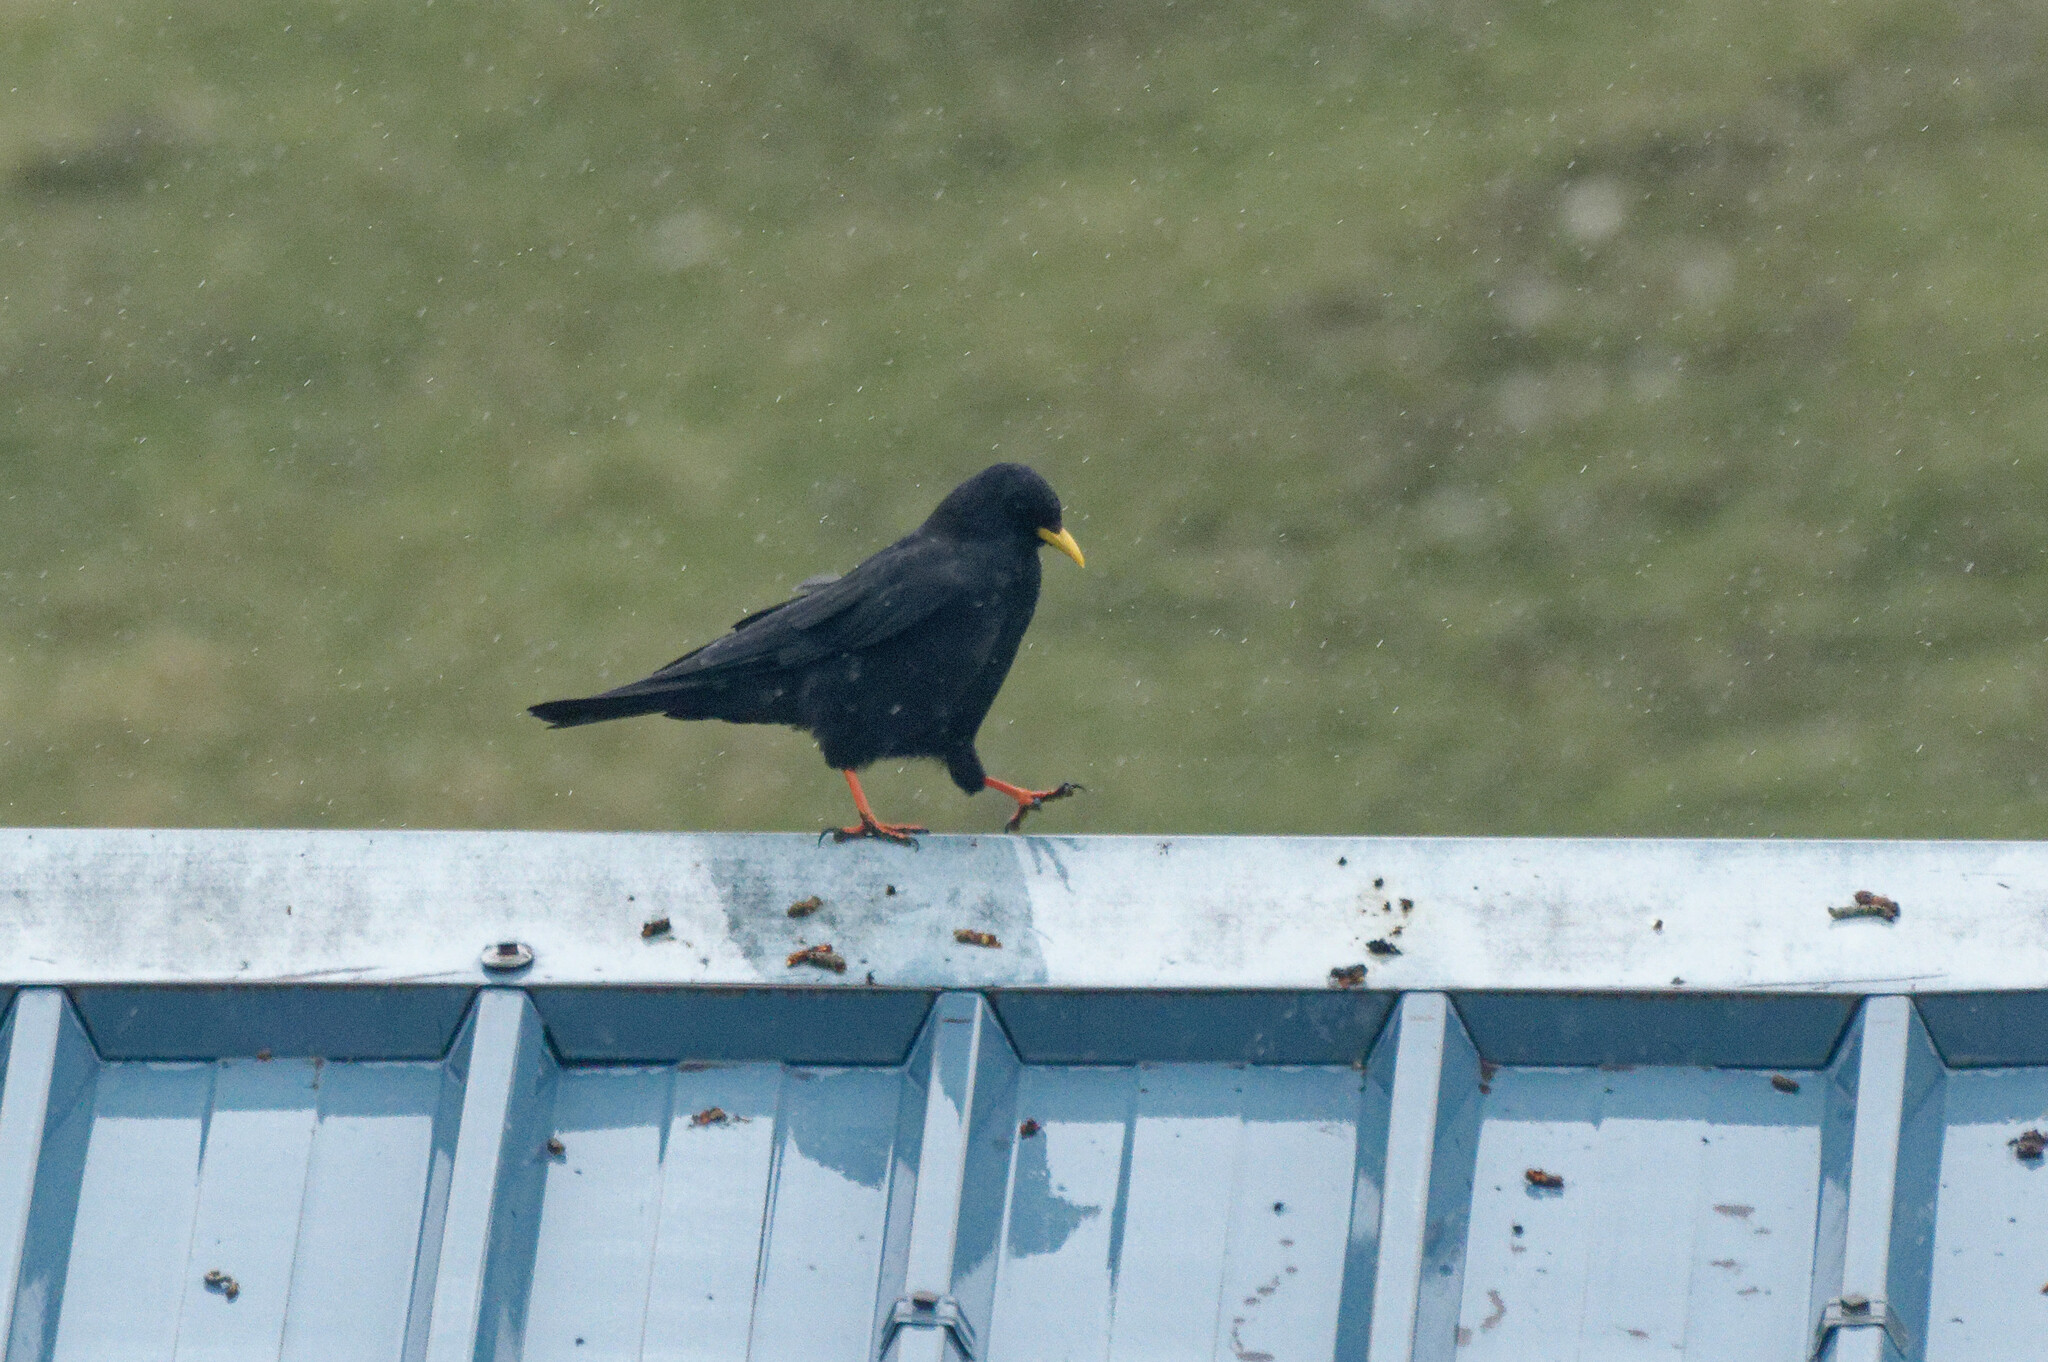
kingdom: Animalia
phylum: Chordata
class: Aves
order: Passeriformes
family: Corvidae
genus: Pyrrhocorax
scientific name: Pyrrhocorax graculus
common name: Alpine chough
